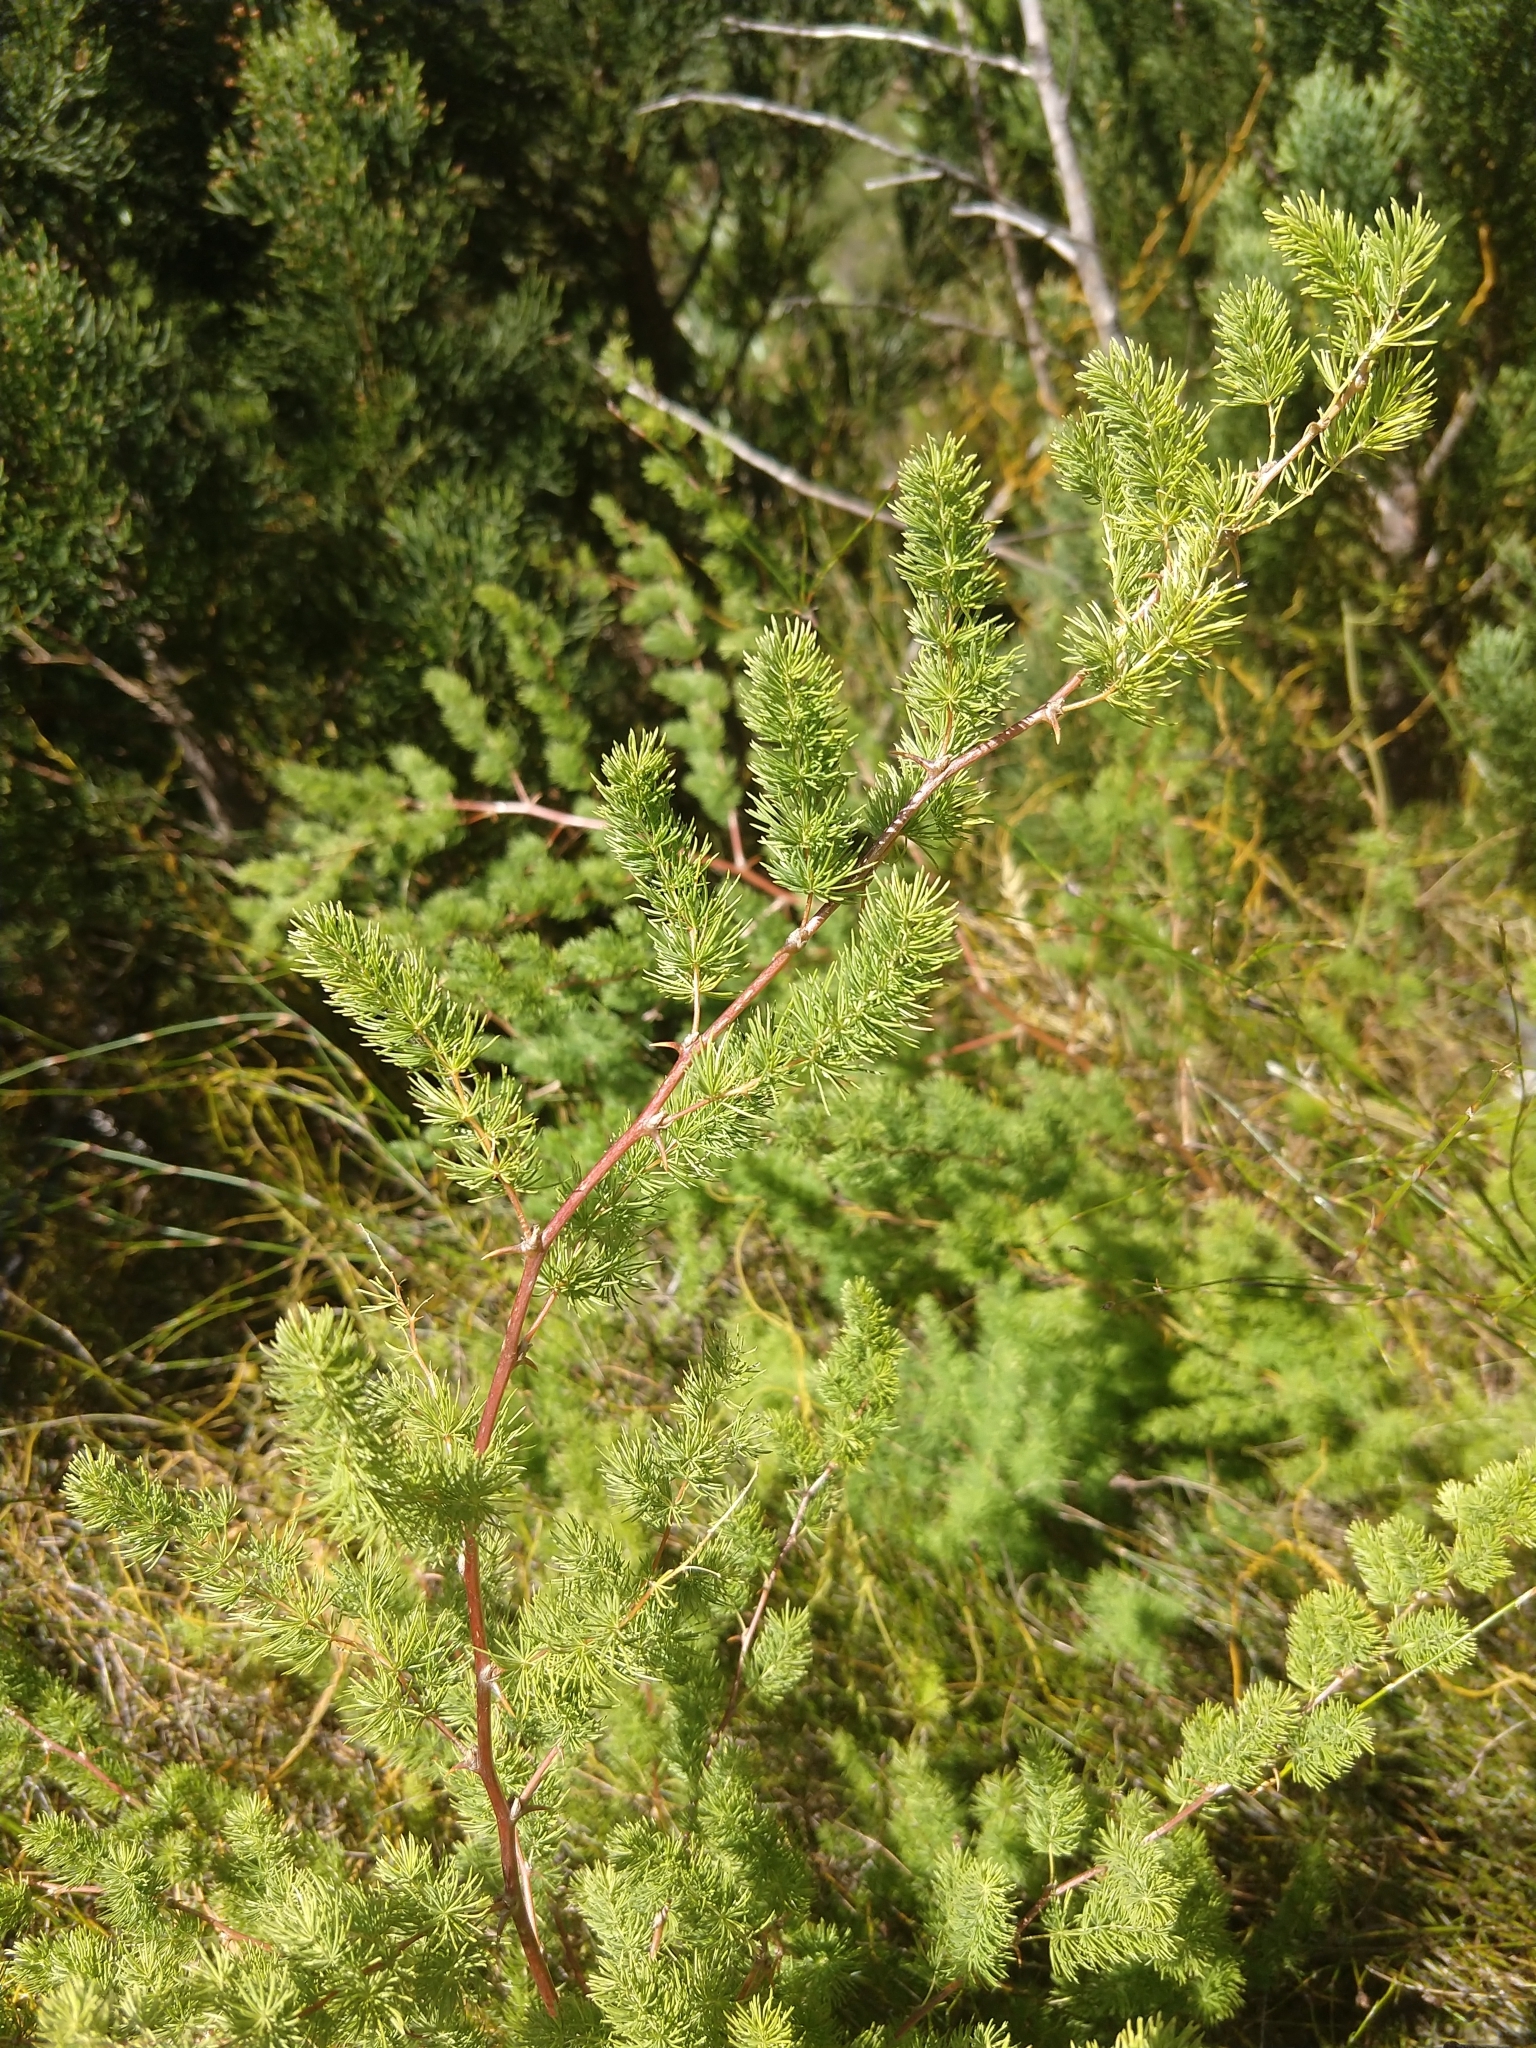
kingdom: Plantae
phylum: Tracheophyta
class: Liliopsida
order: Asparagales
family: Asparagaceae
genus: Asparagus
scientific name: Asparagus rubicundus
